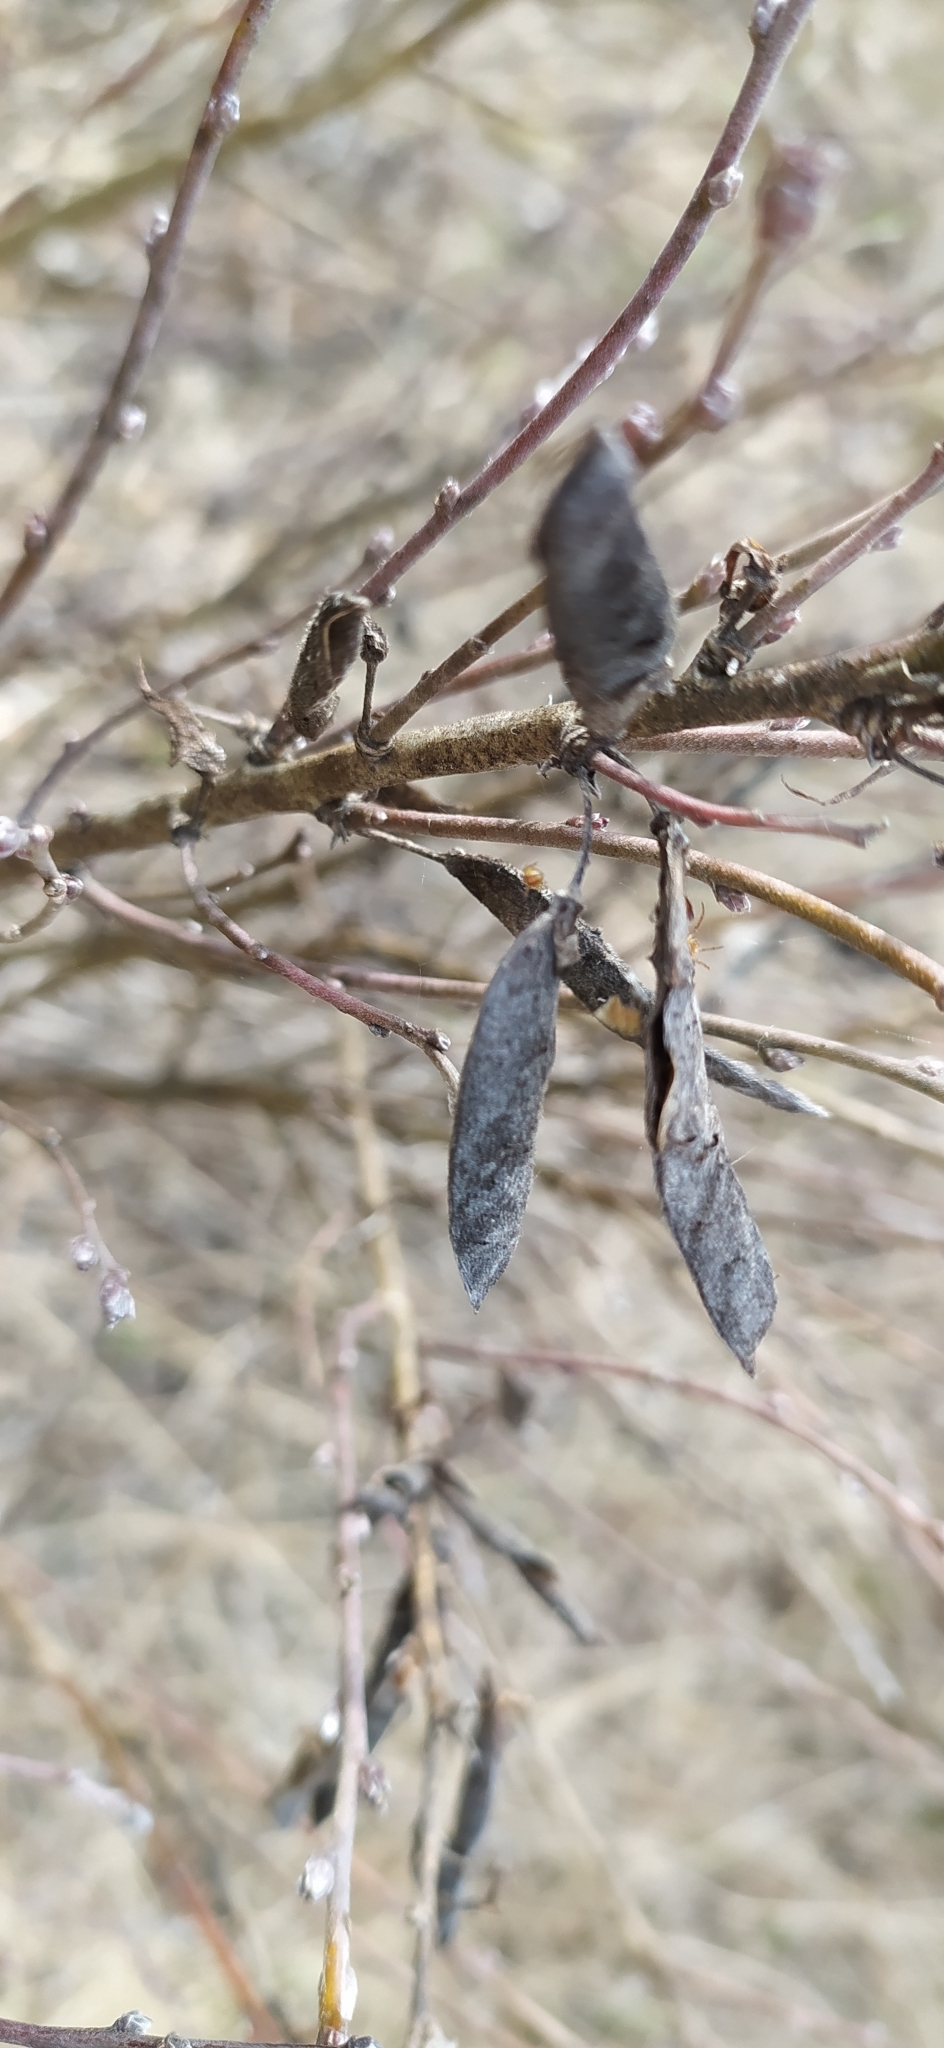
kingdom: Plantae
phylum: Tracheophyta
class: Magnoliopsida
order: Fabales
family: Fabaceae
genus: Chamaecytisus
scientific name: Chamaecytisus ruthenicus
